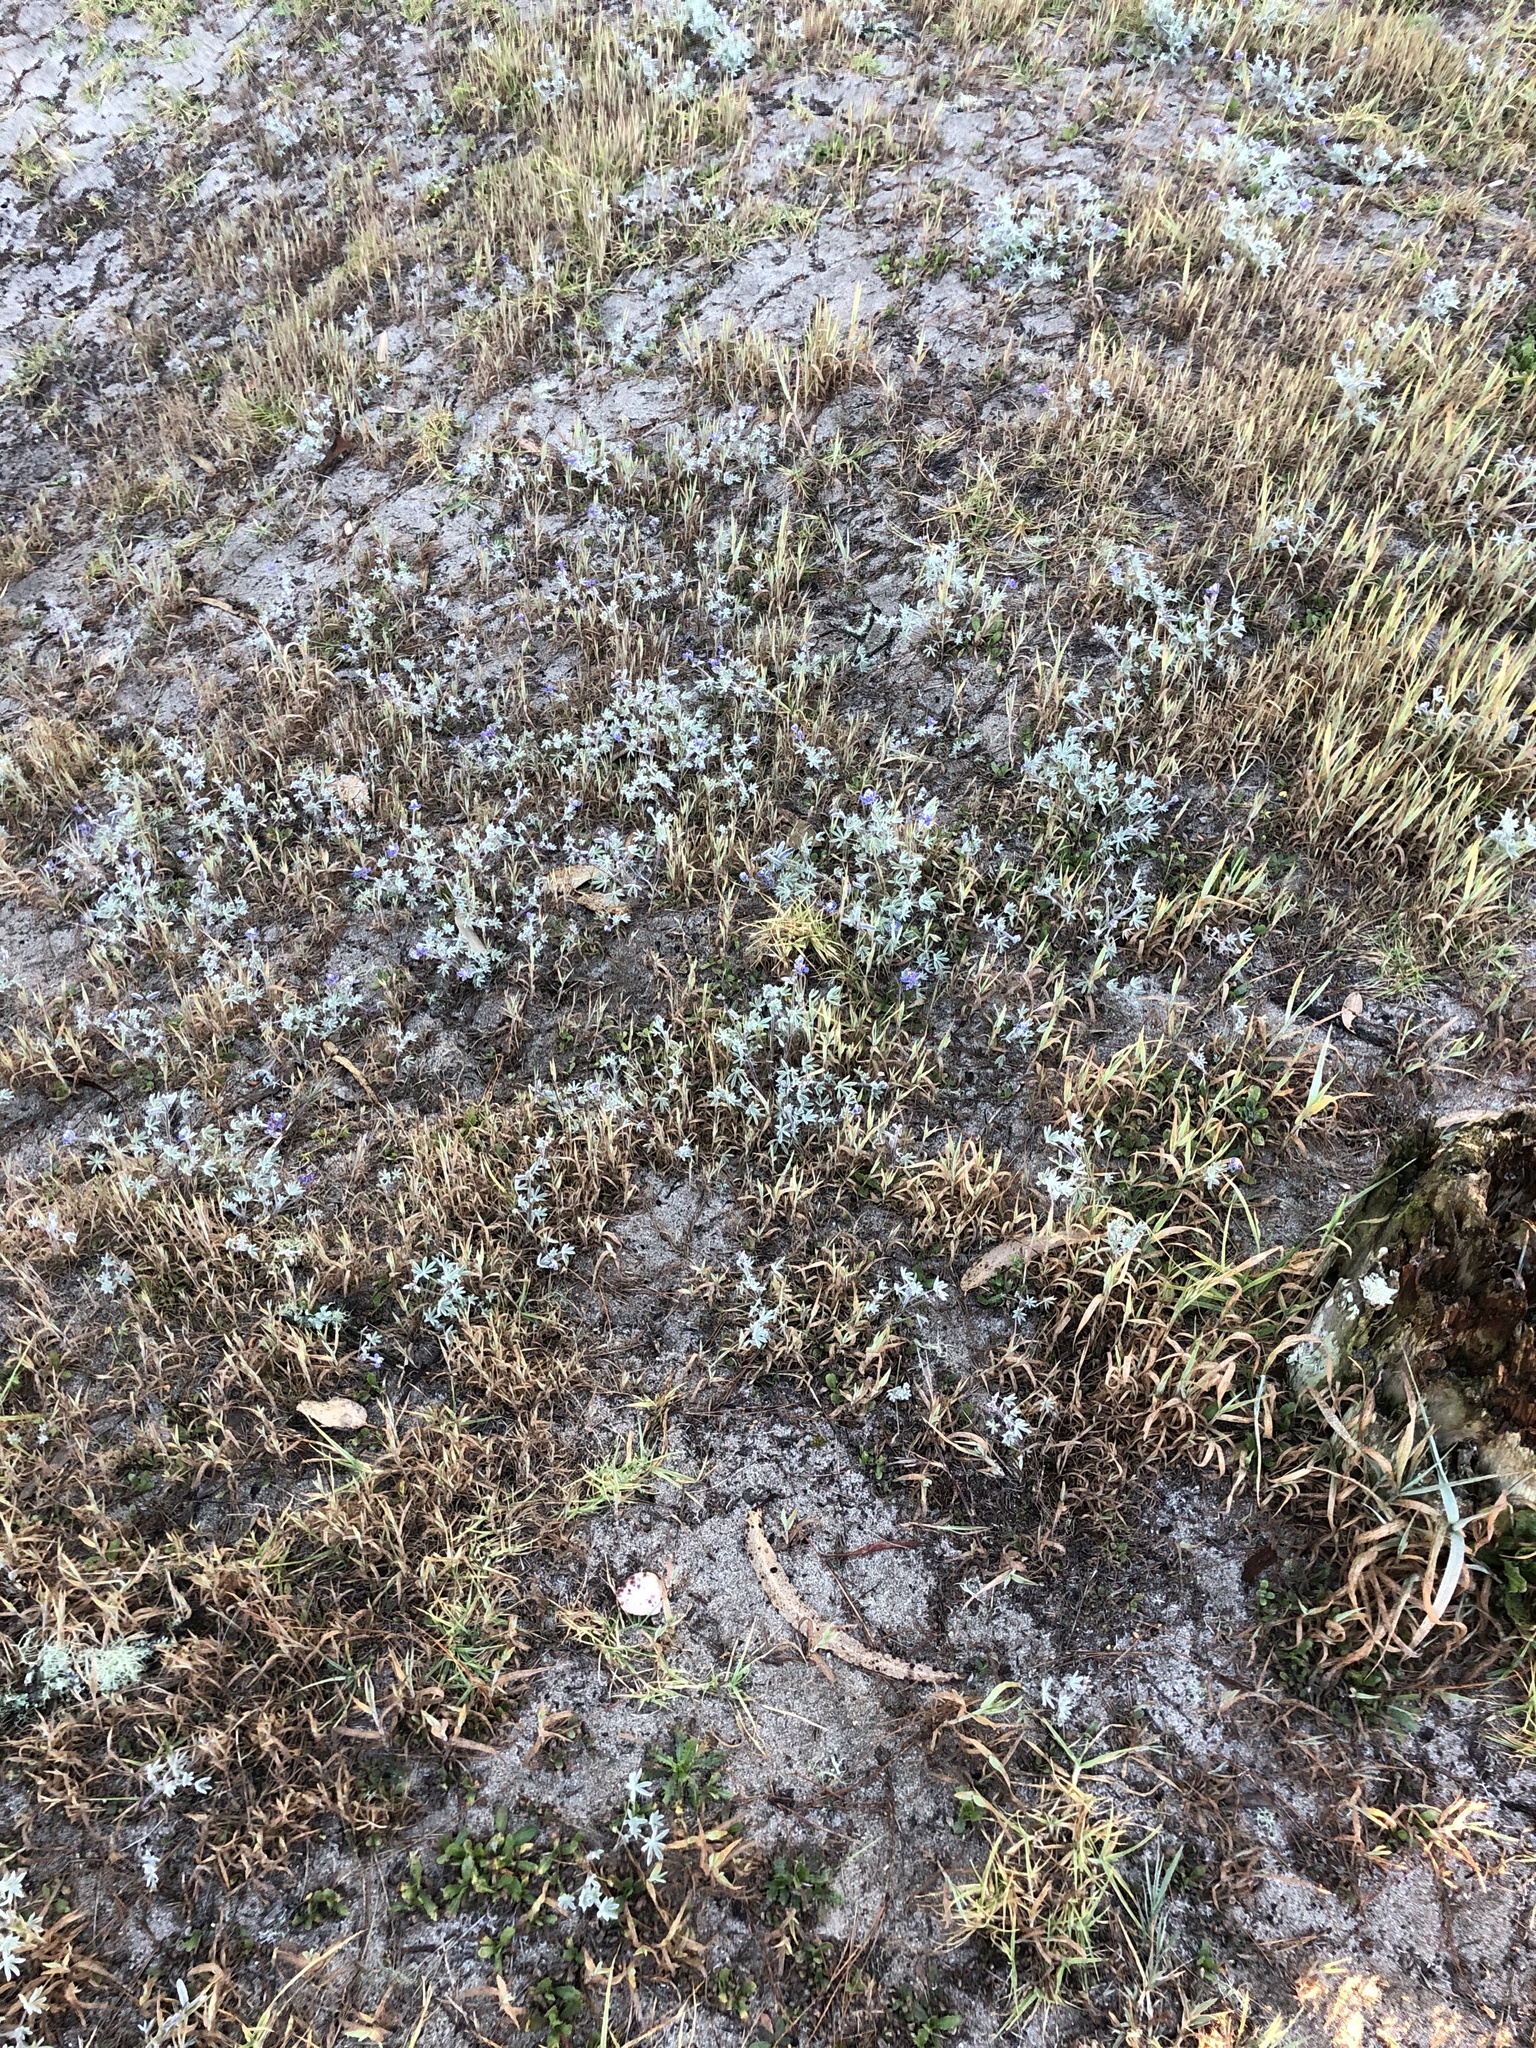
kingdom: Plantae
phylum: Tracheophyta
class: Magnoliopsida
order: Fabales
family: Fabaceae
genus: Lupinus
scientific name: Lupinus bicolor
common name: Miniature lupine
